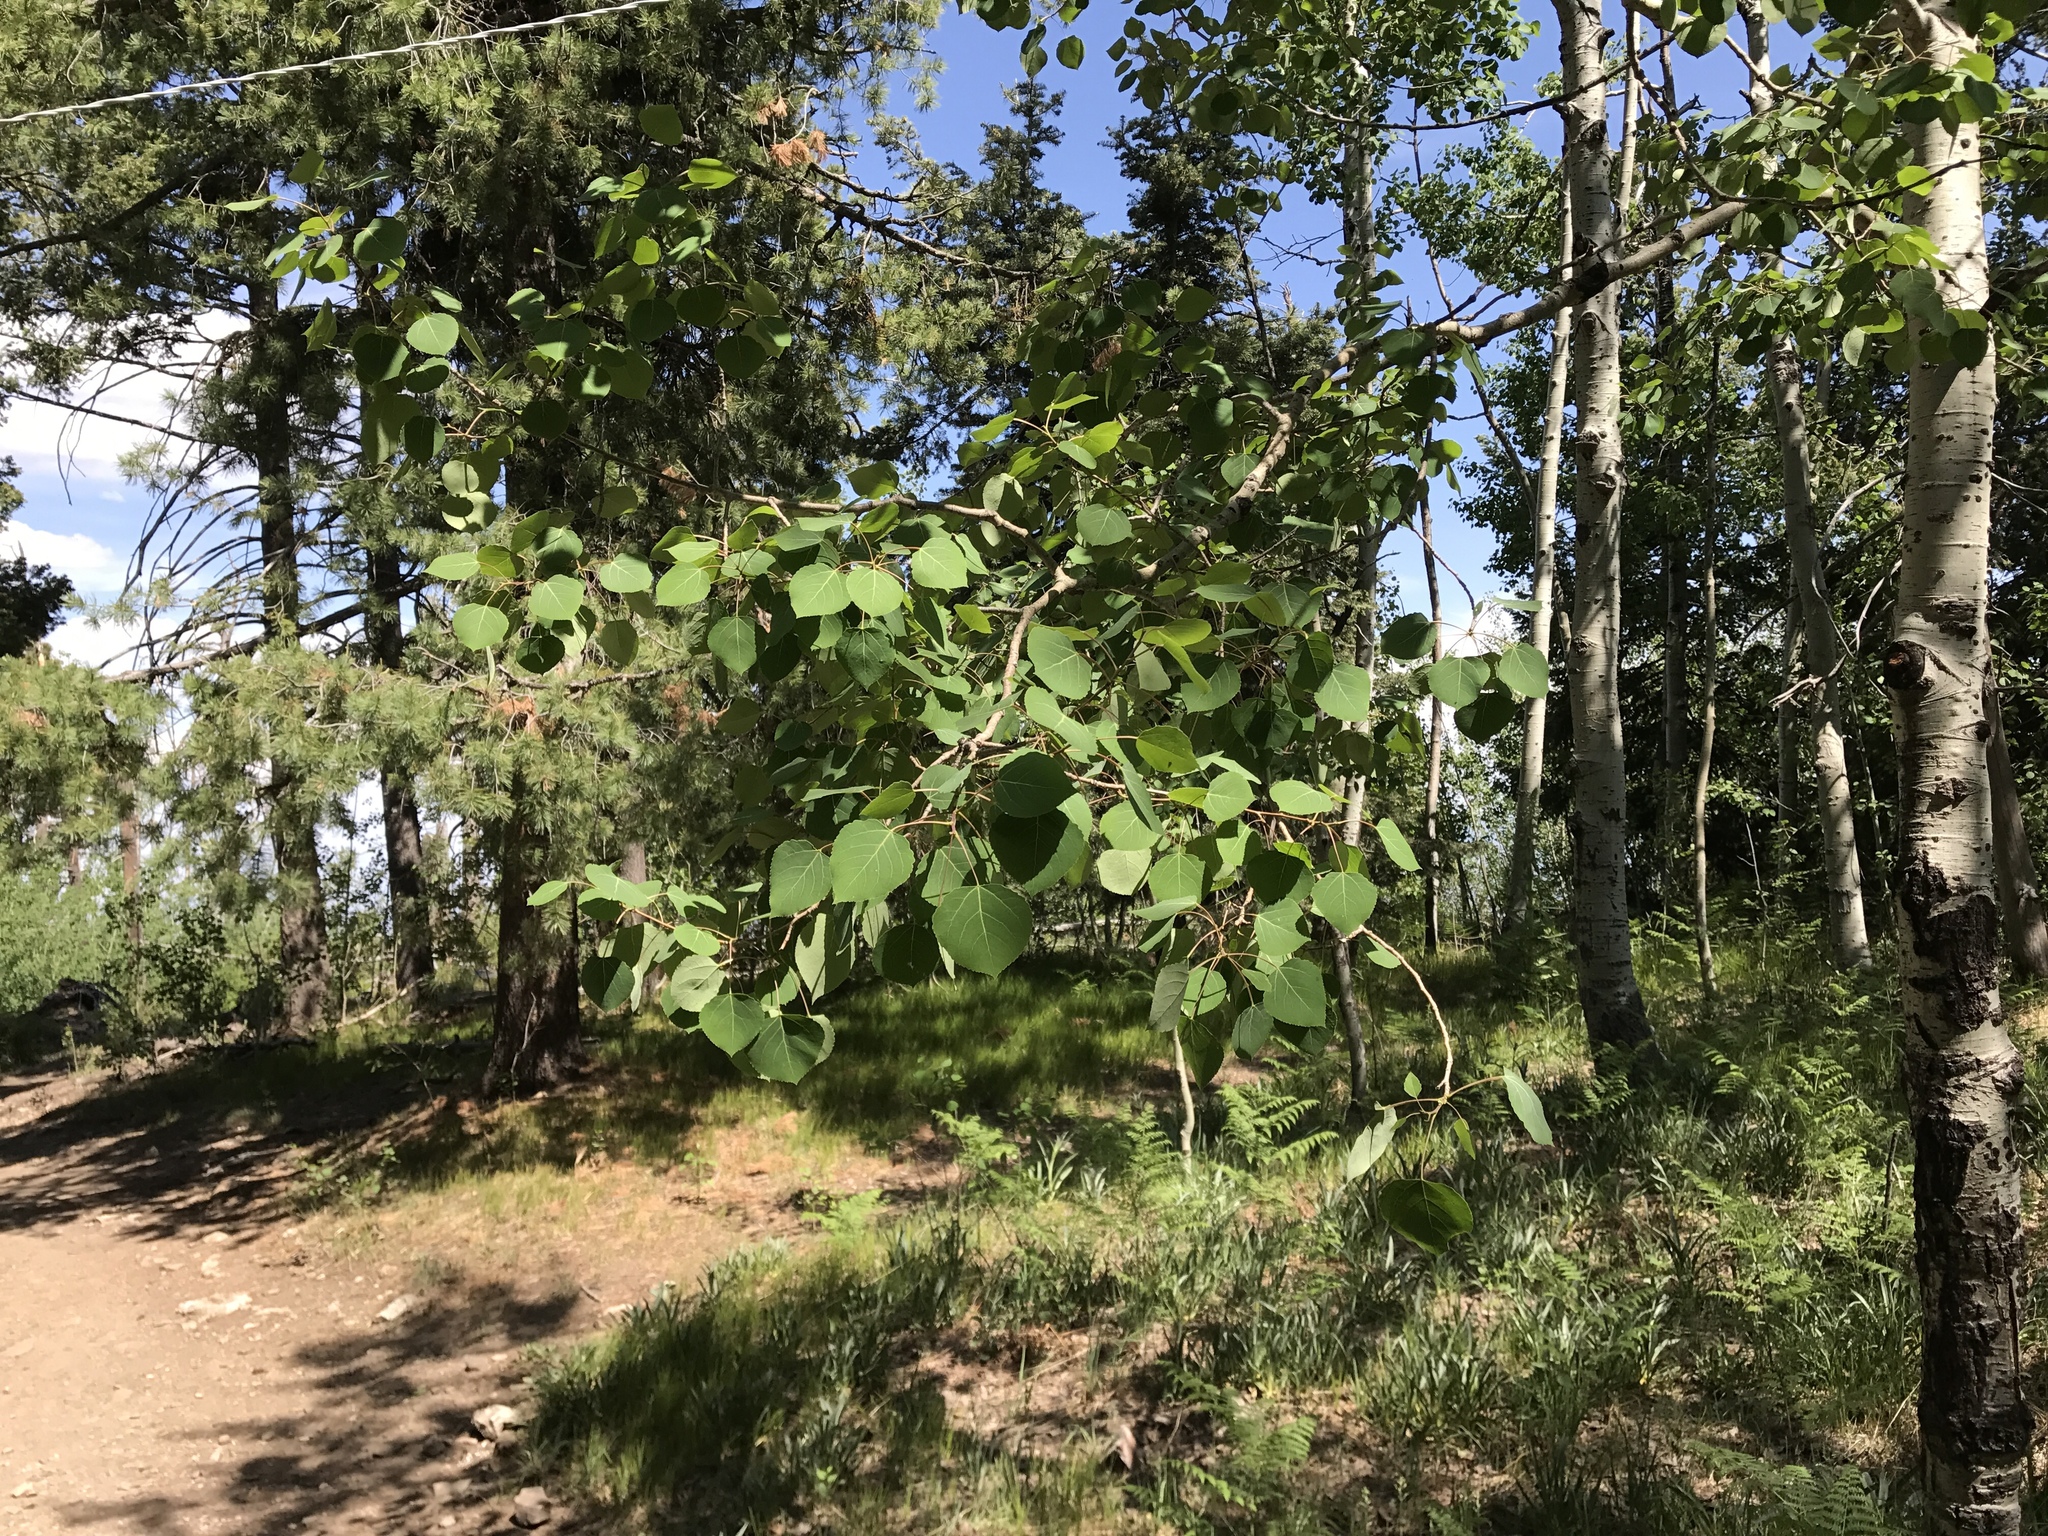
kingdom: Plantae
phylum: Tracheophyta
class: Magnoliopsida
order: Malpighiales
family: Salicaceae
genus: Populus
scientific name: Populus tremuloides
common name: Quaking aspen
